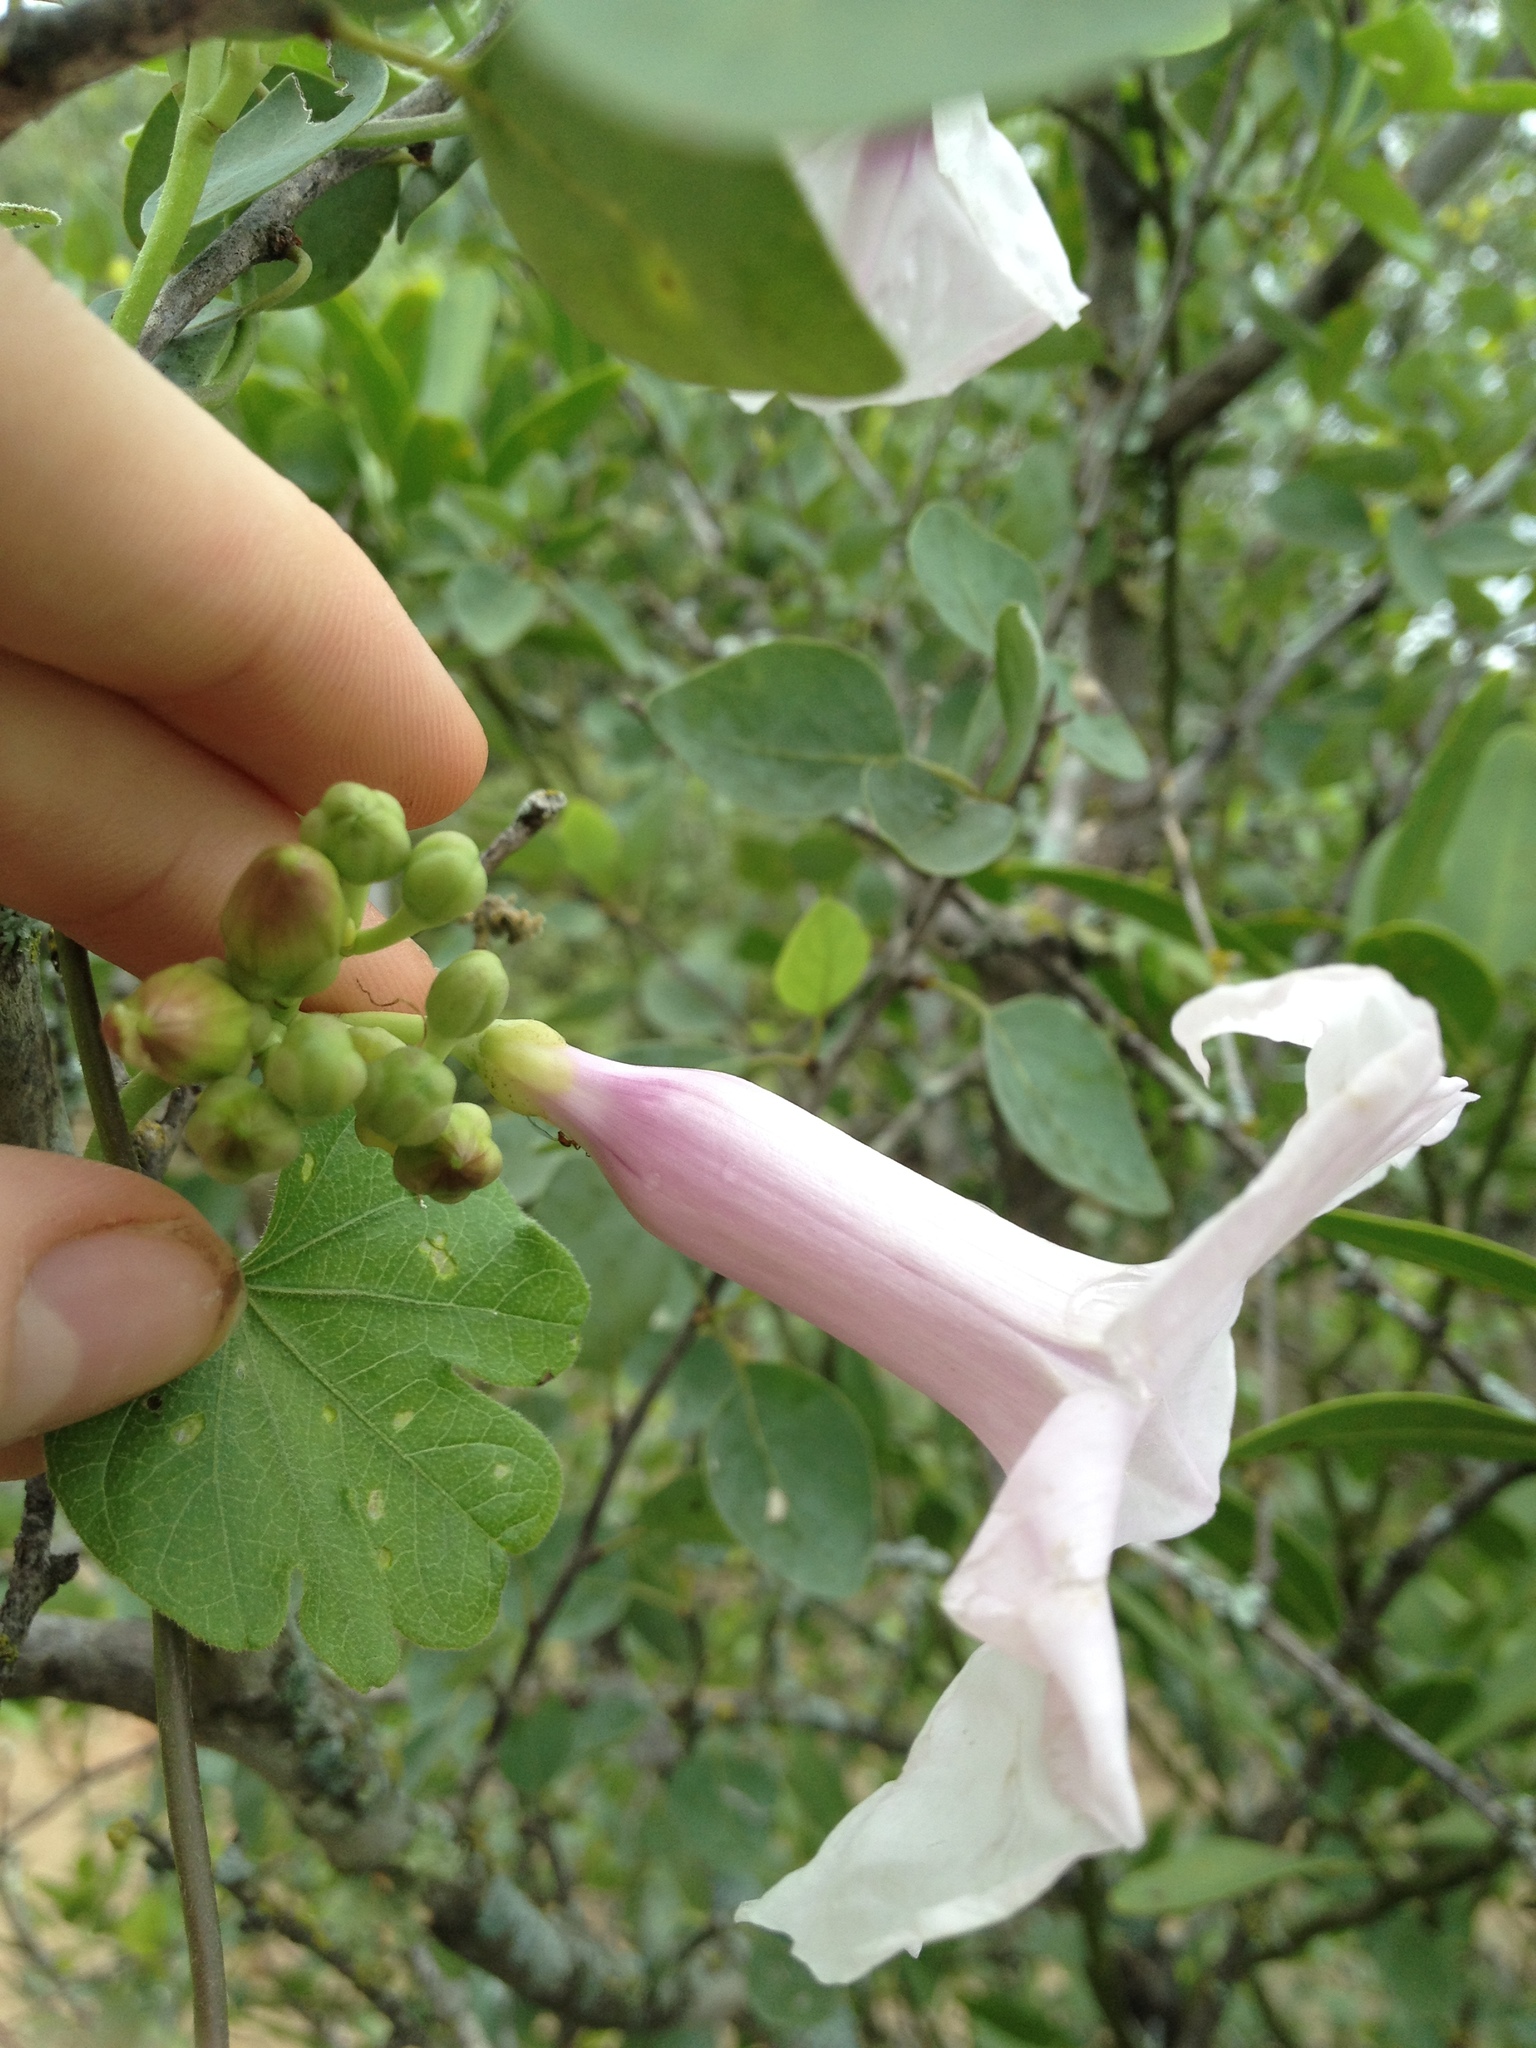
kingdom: Plantae
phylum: Tracheophyta
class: Magnoliopsida
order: Solanales
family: Convolvulaceae
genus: Ipomoea
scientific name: Ipomoea bonariensis
